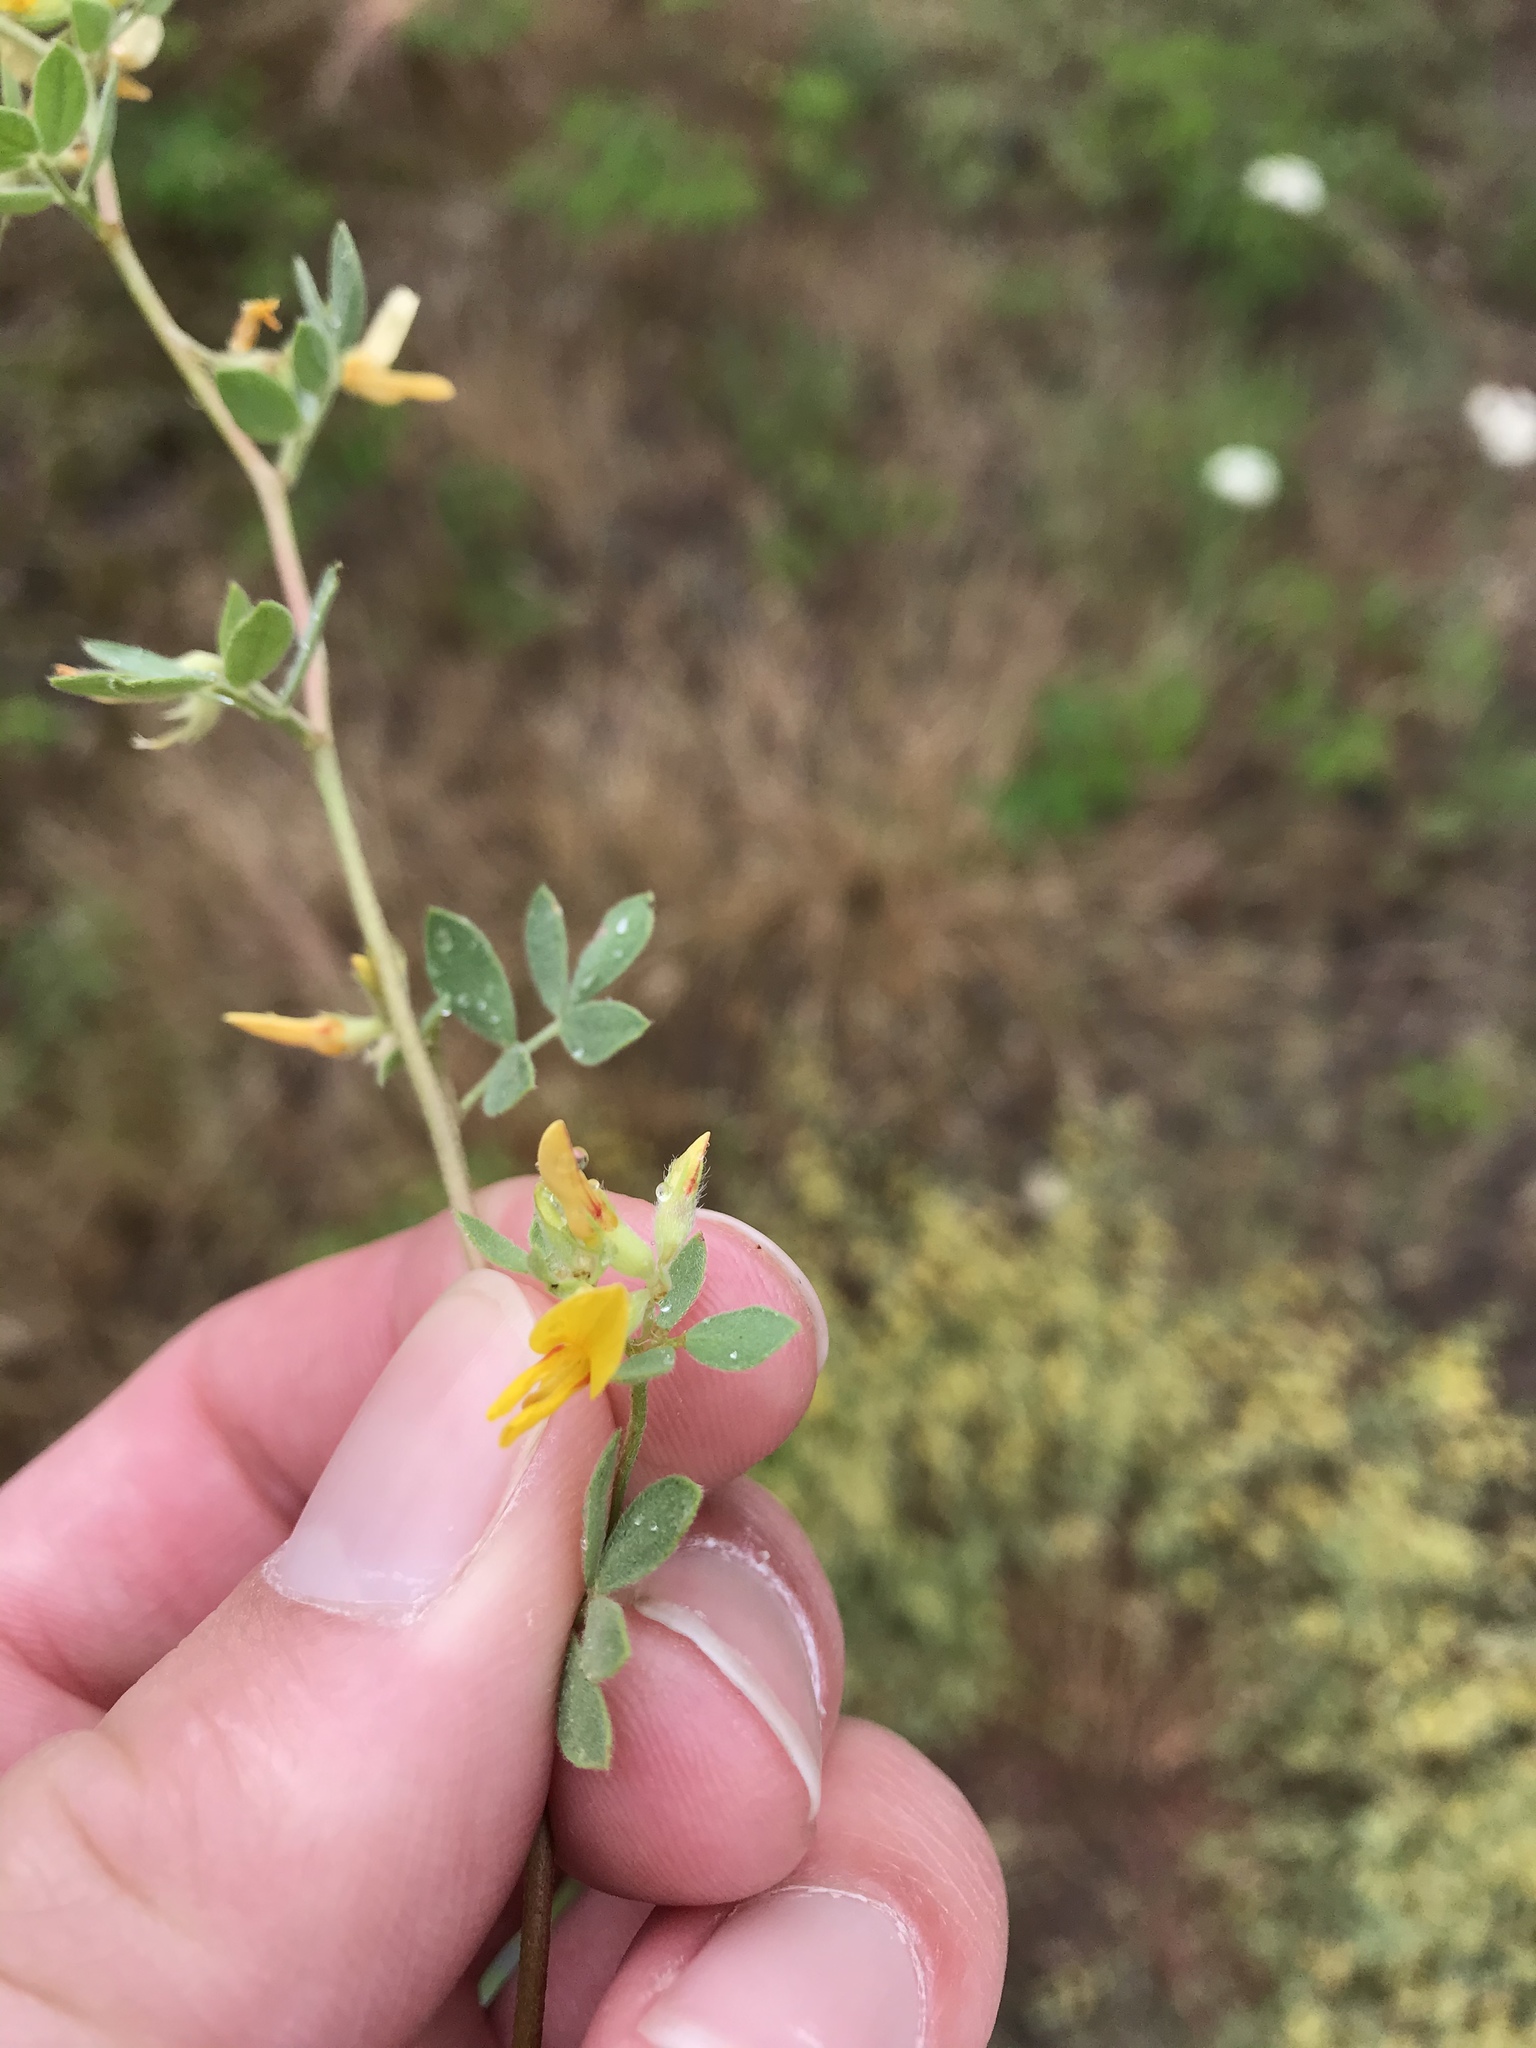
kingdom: Plantae
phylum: Tracheophyta
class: Magnoliopsida
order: Fabales
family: Fabaceae
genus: Acmispon
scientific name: Acmispon decumbens
